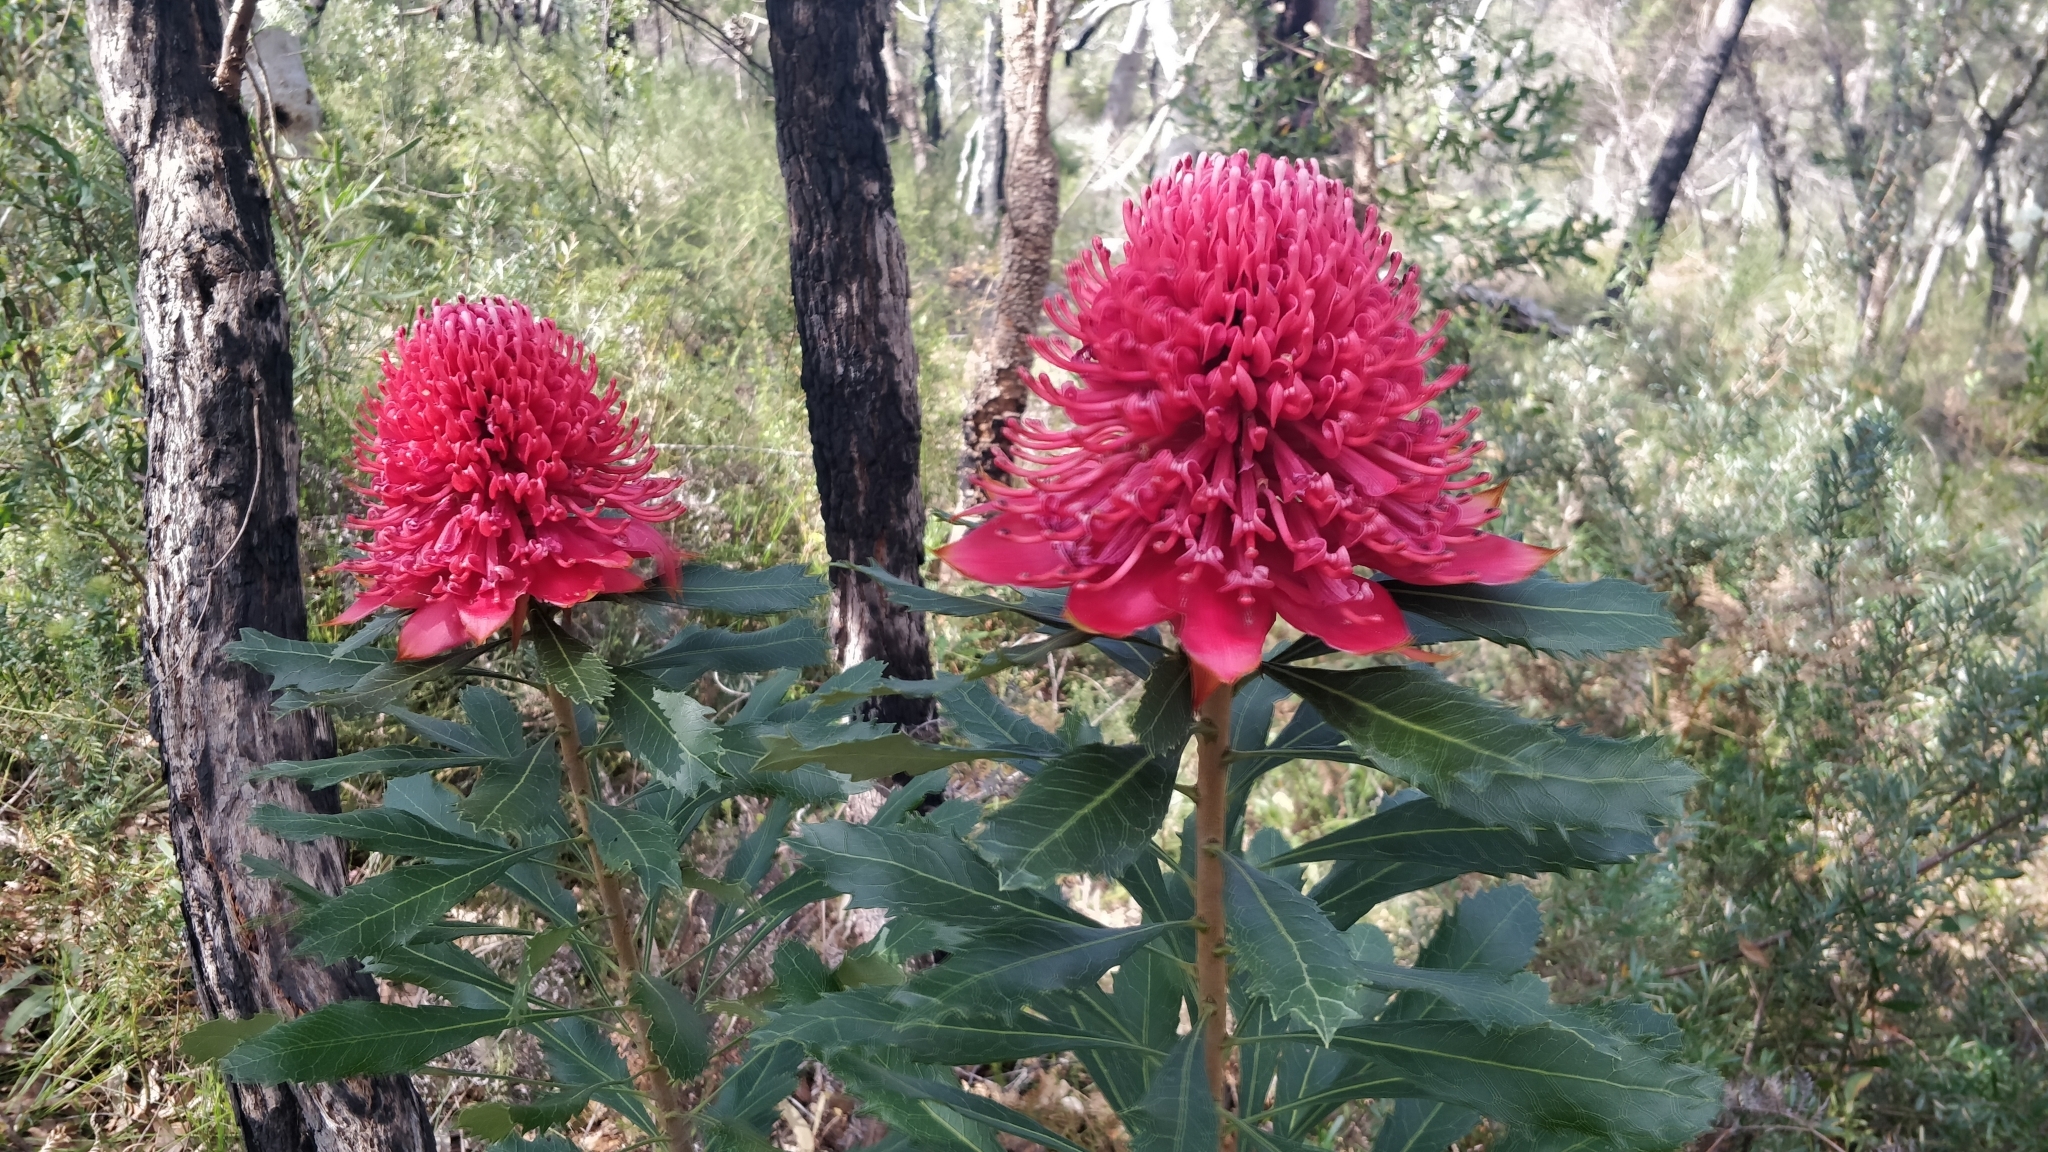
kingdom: Plantae
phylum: Tracheophyta
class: Magnoliopsida
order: Proteales
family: Proteaceae
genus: Telopea
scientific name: Telopea speciosissima
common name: New south wales waratah
